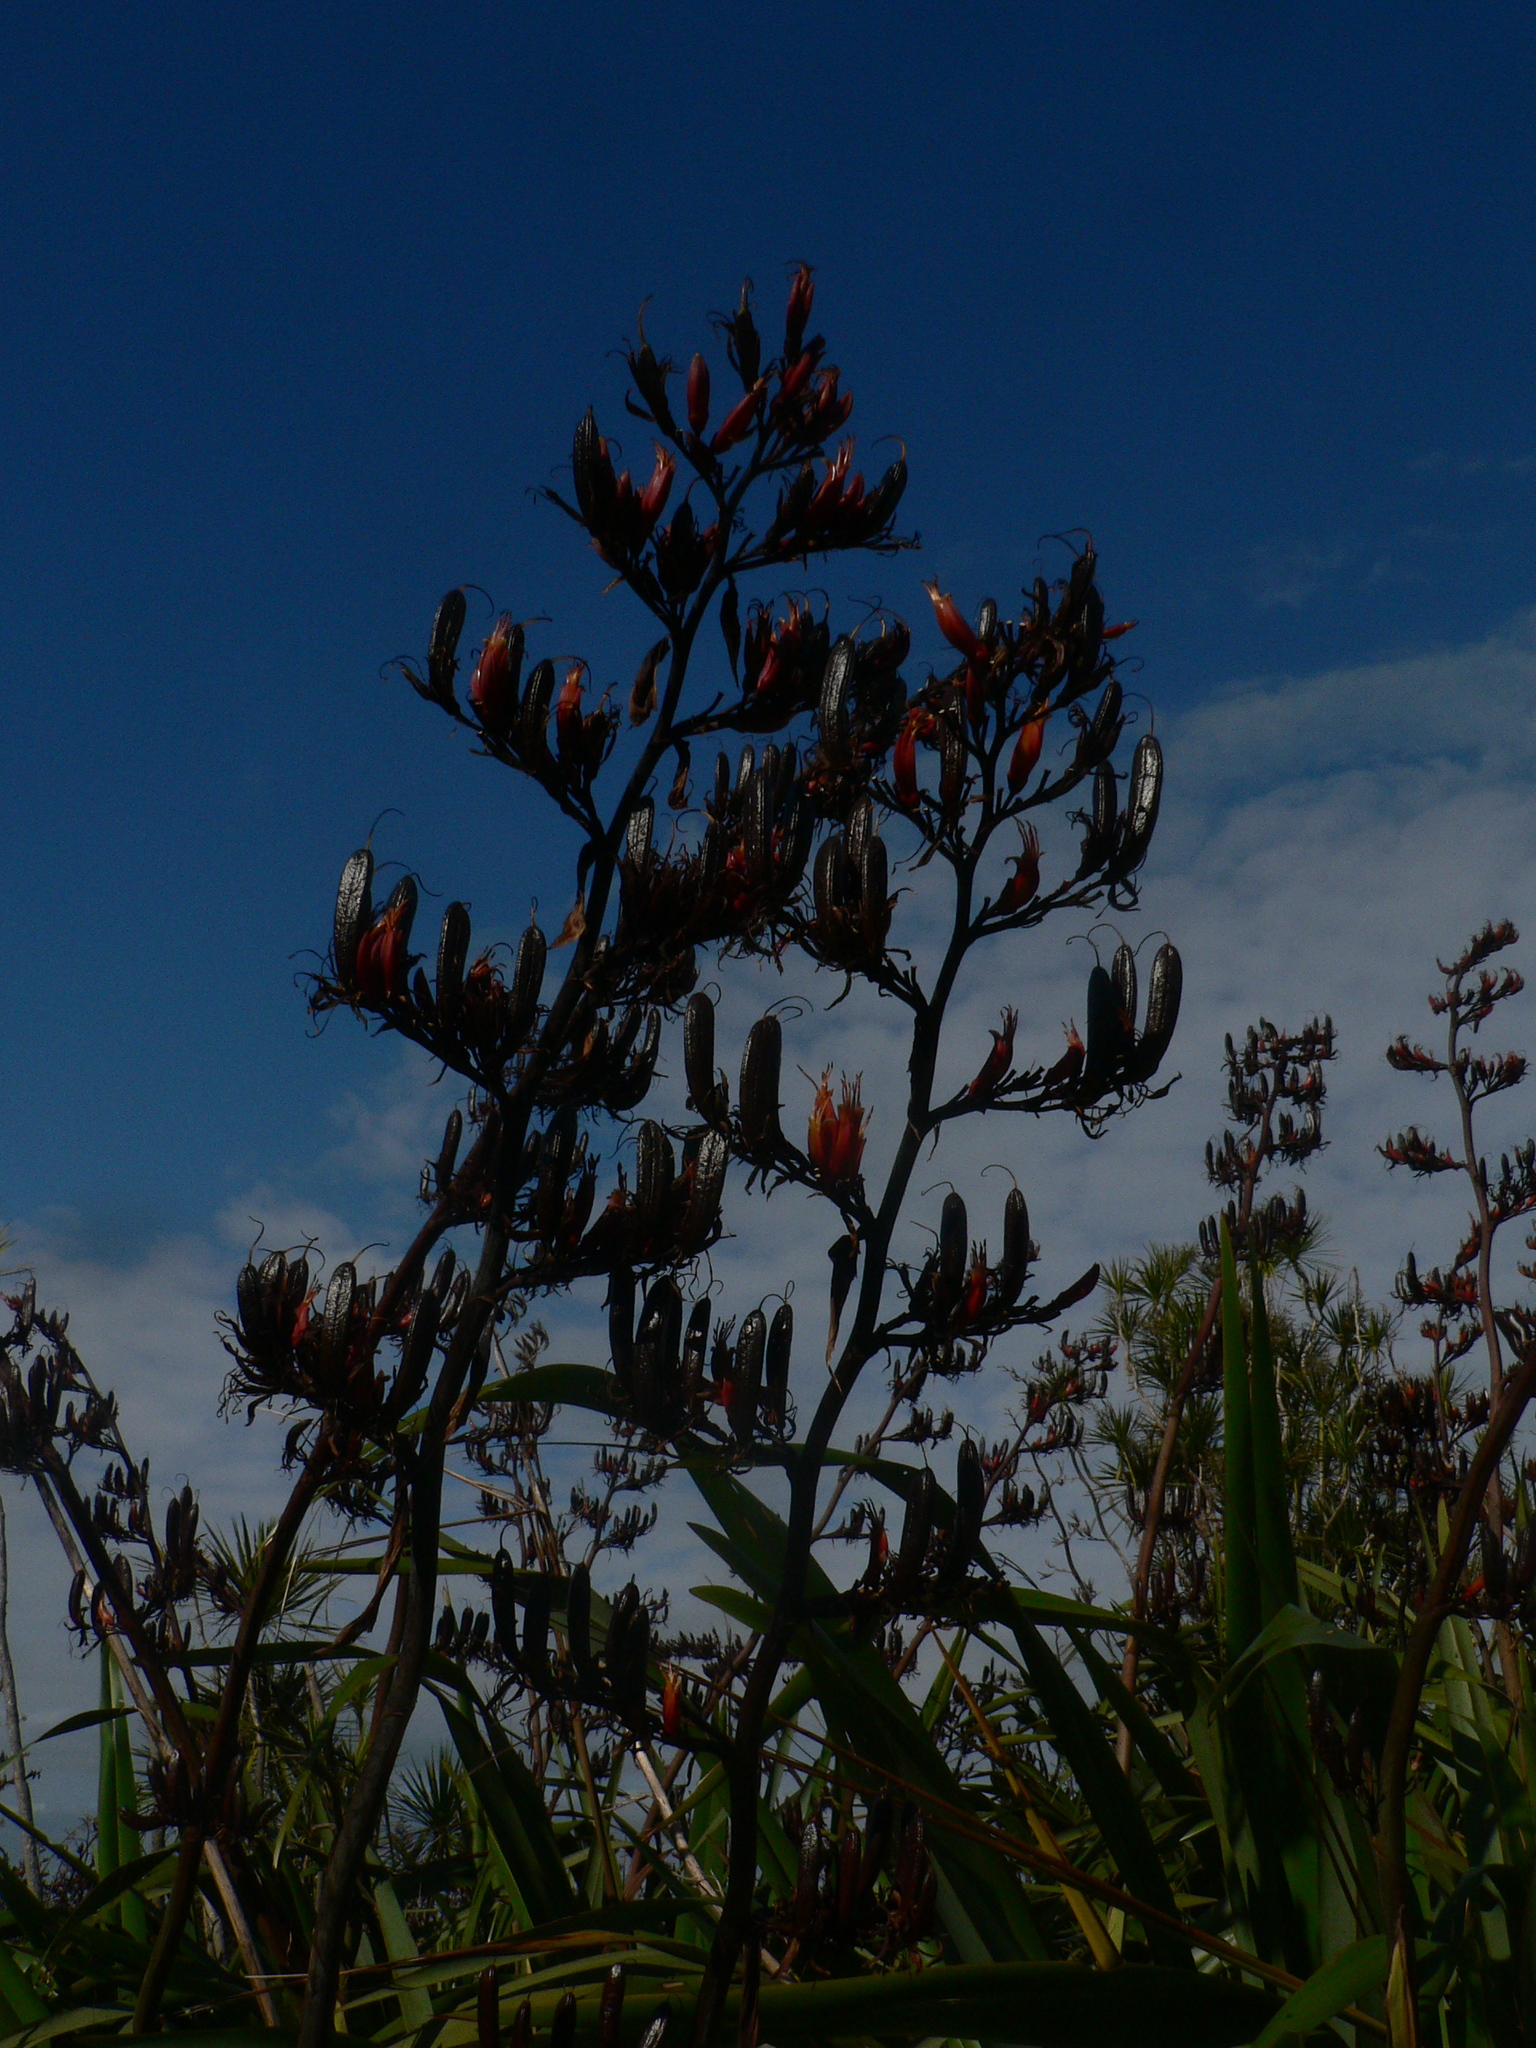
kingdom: Plantae
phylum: Tracheophyta
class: Liliopsida
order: Asparagales
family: Asphodelaceae
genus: Phormium
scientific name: Phormium tenax
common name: New zealand flax
